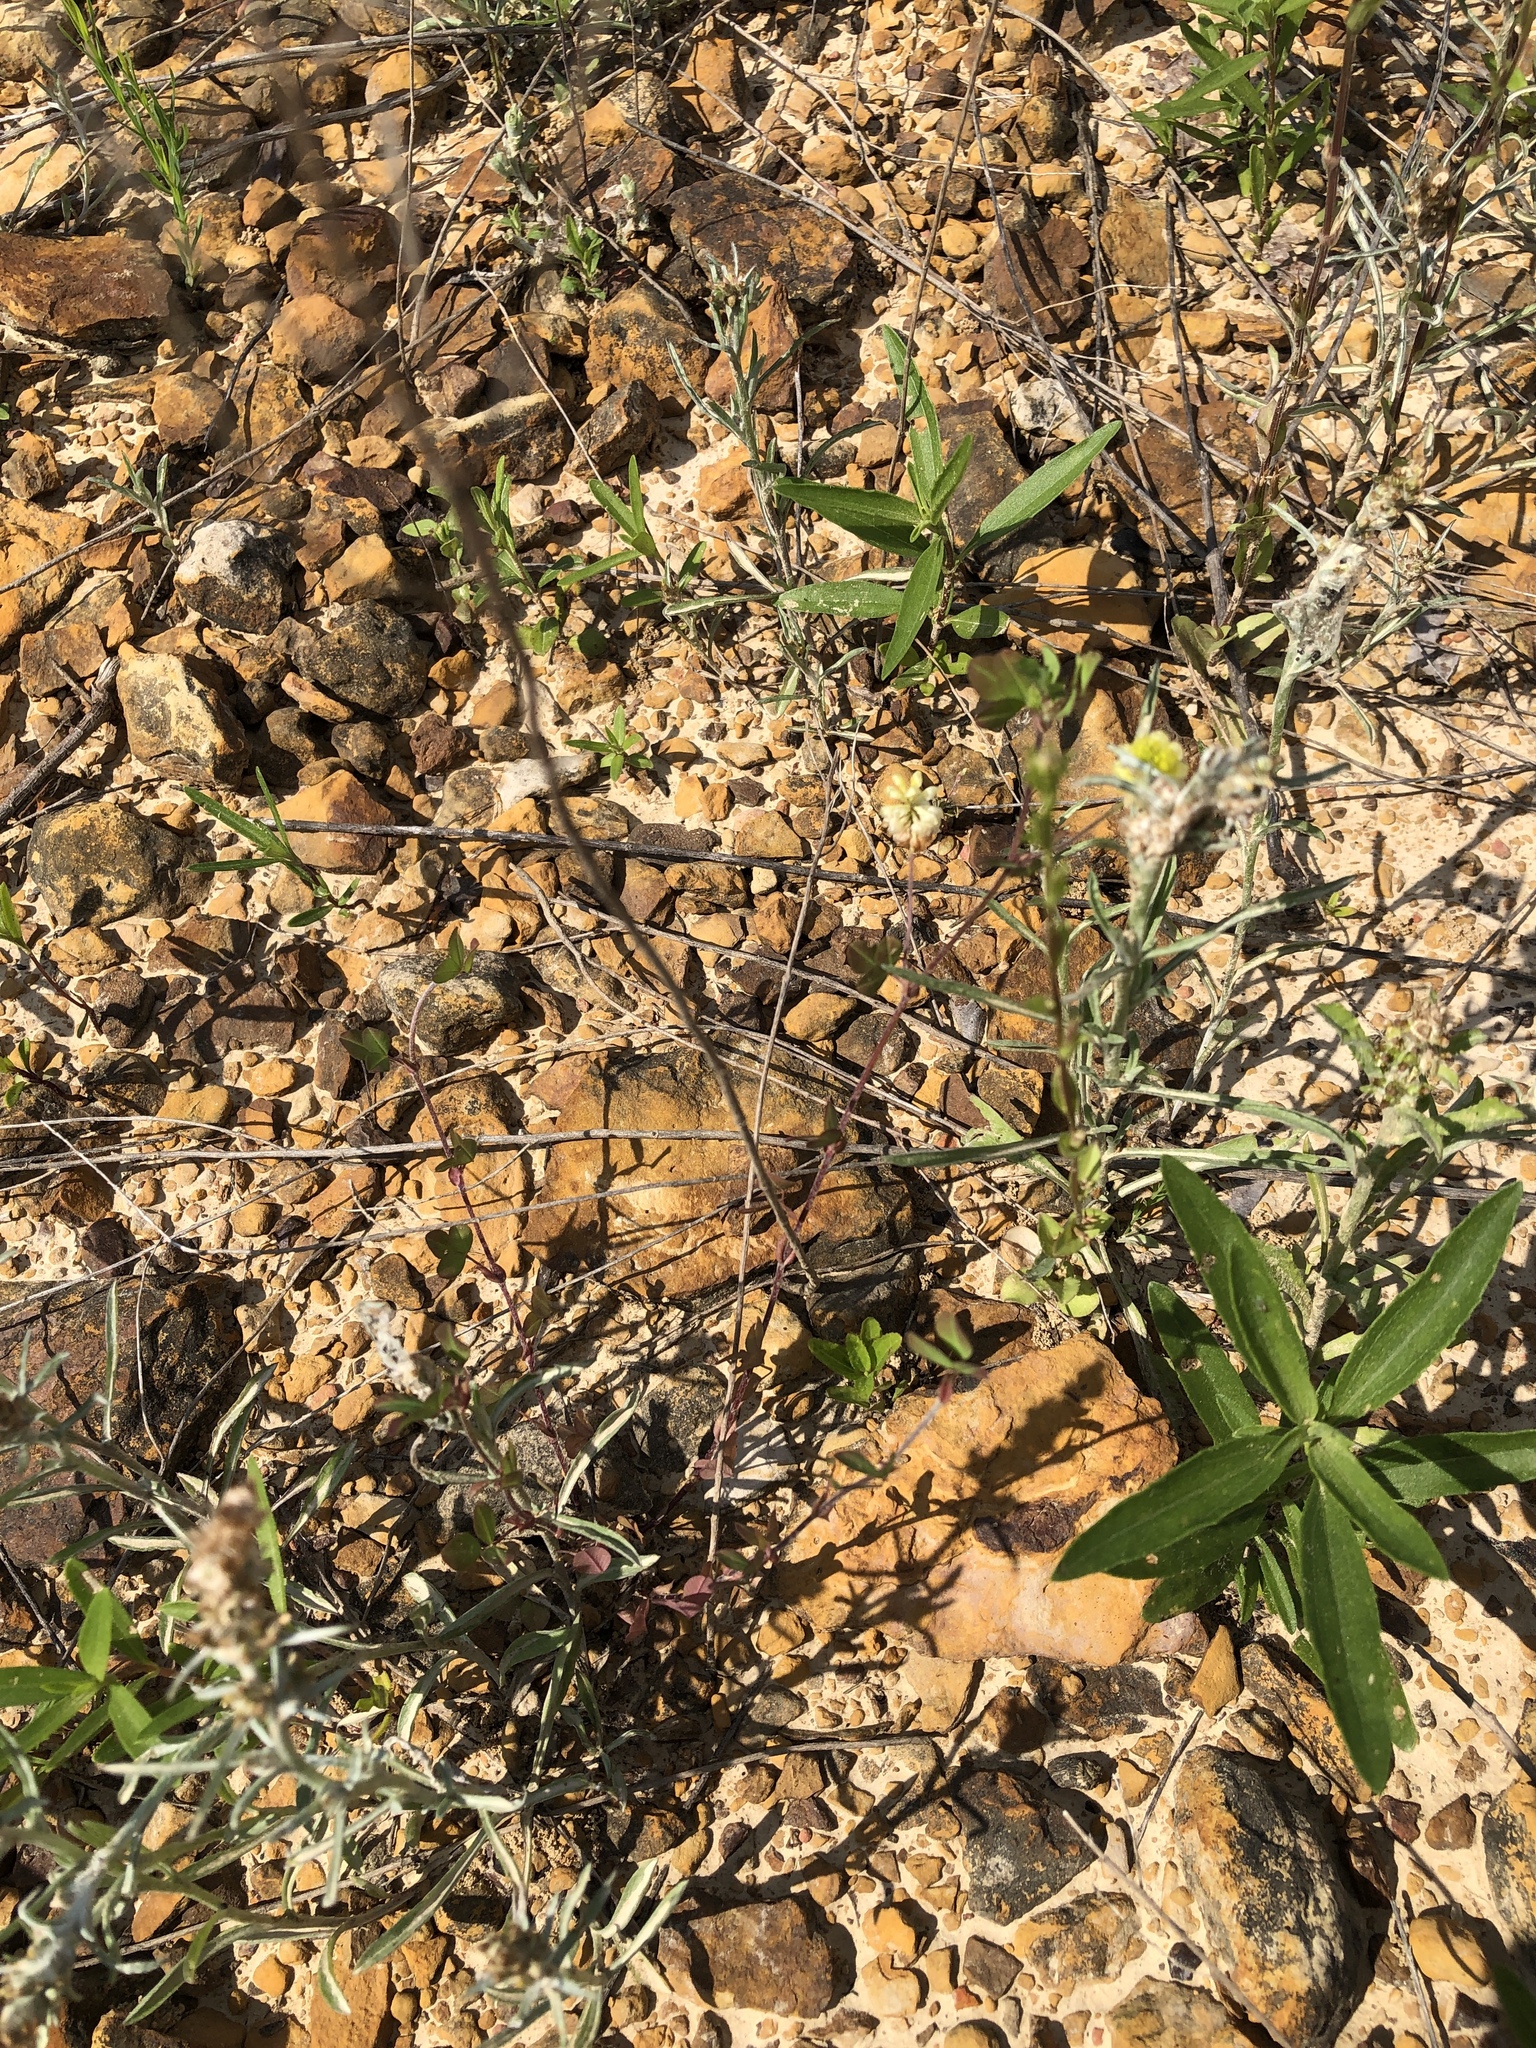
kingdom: Plantae
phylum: Tracheophyta
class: Magnoliopsida
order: Fabales
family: Fabaceae
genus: Trifolium
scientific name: Trifolium campestre
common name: Field clover
